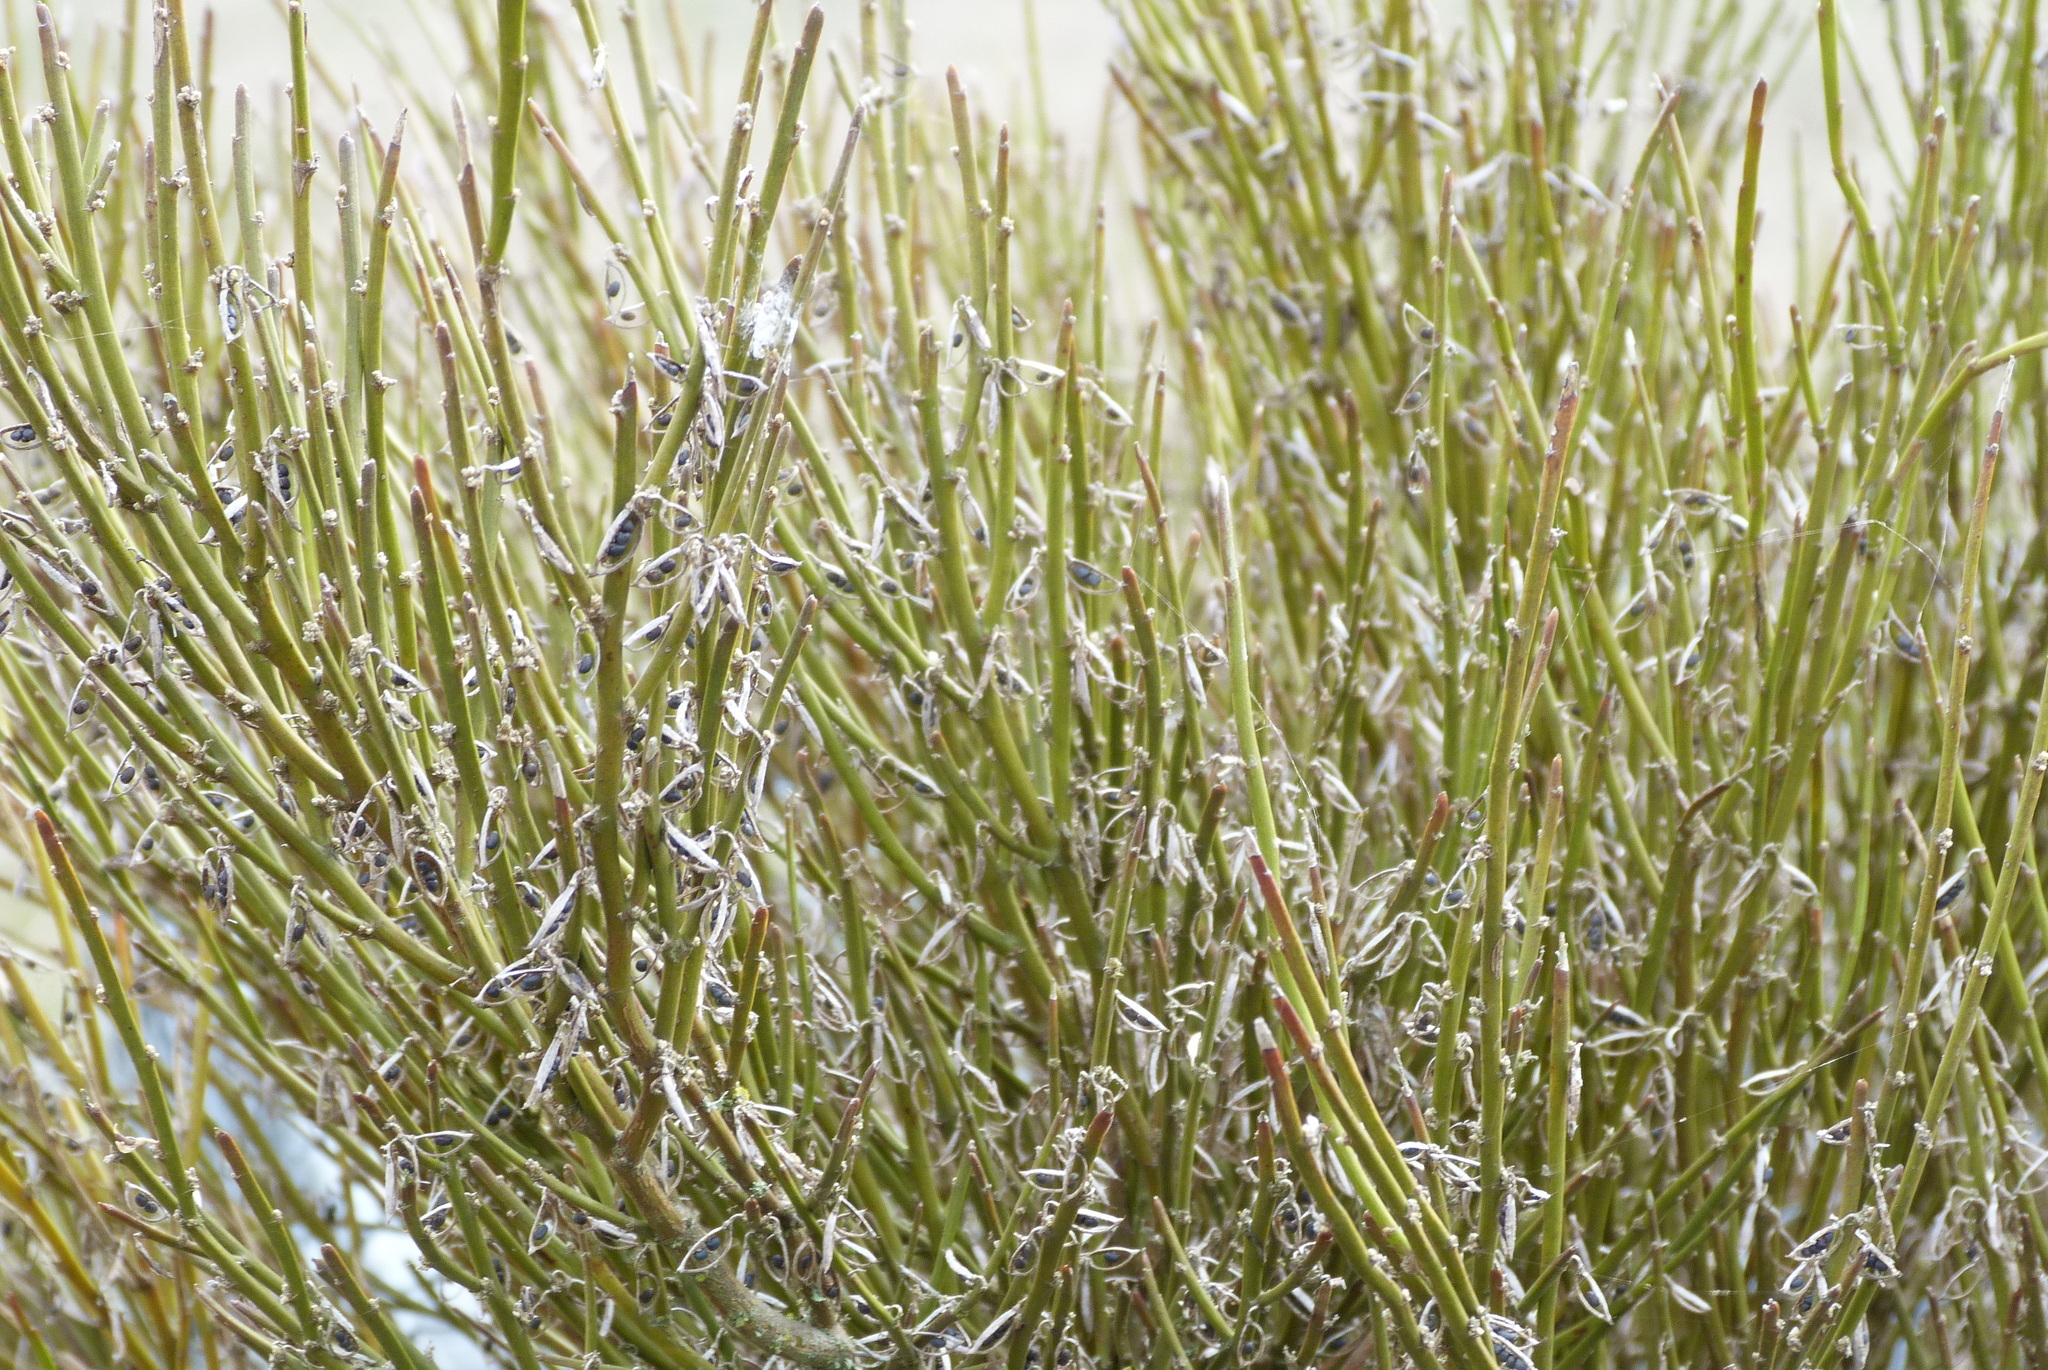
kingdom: Plantae
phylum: Tracheophyta
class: Magnoliopsida
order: Fabales
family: Fabaceae
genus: Carmichaelia
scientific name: Carmichaelia australis
